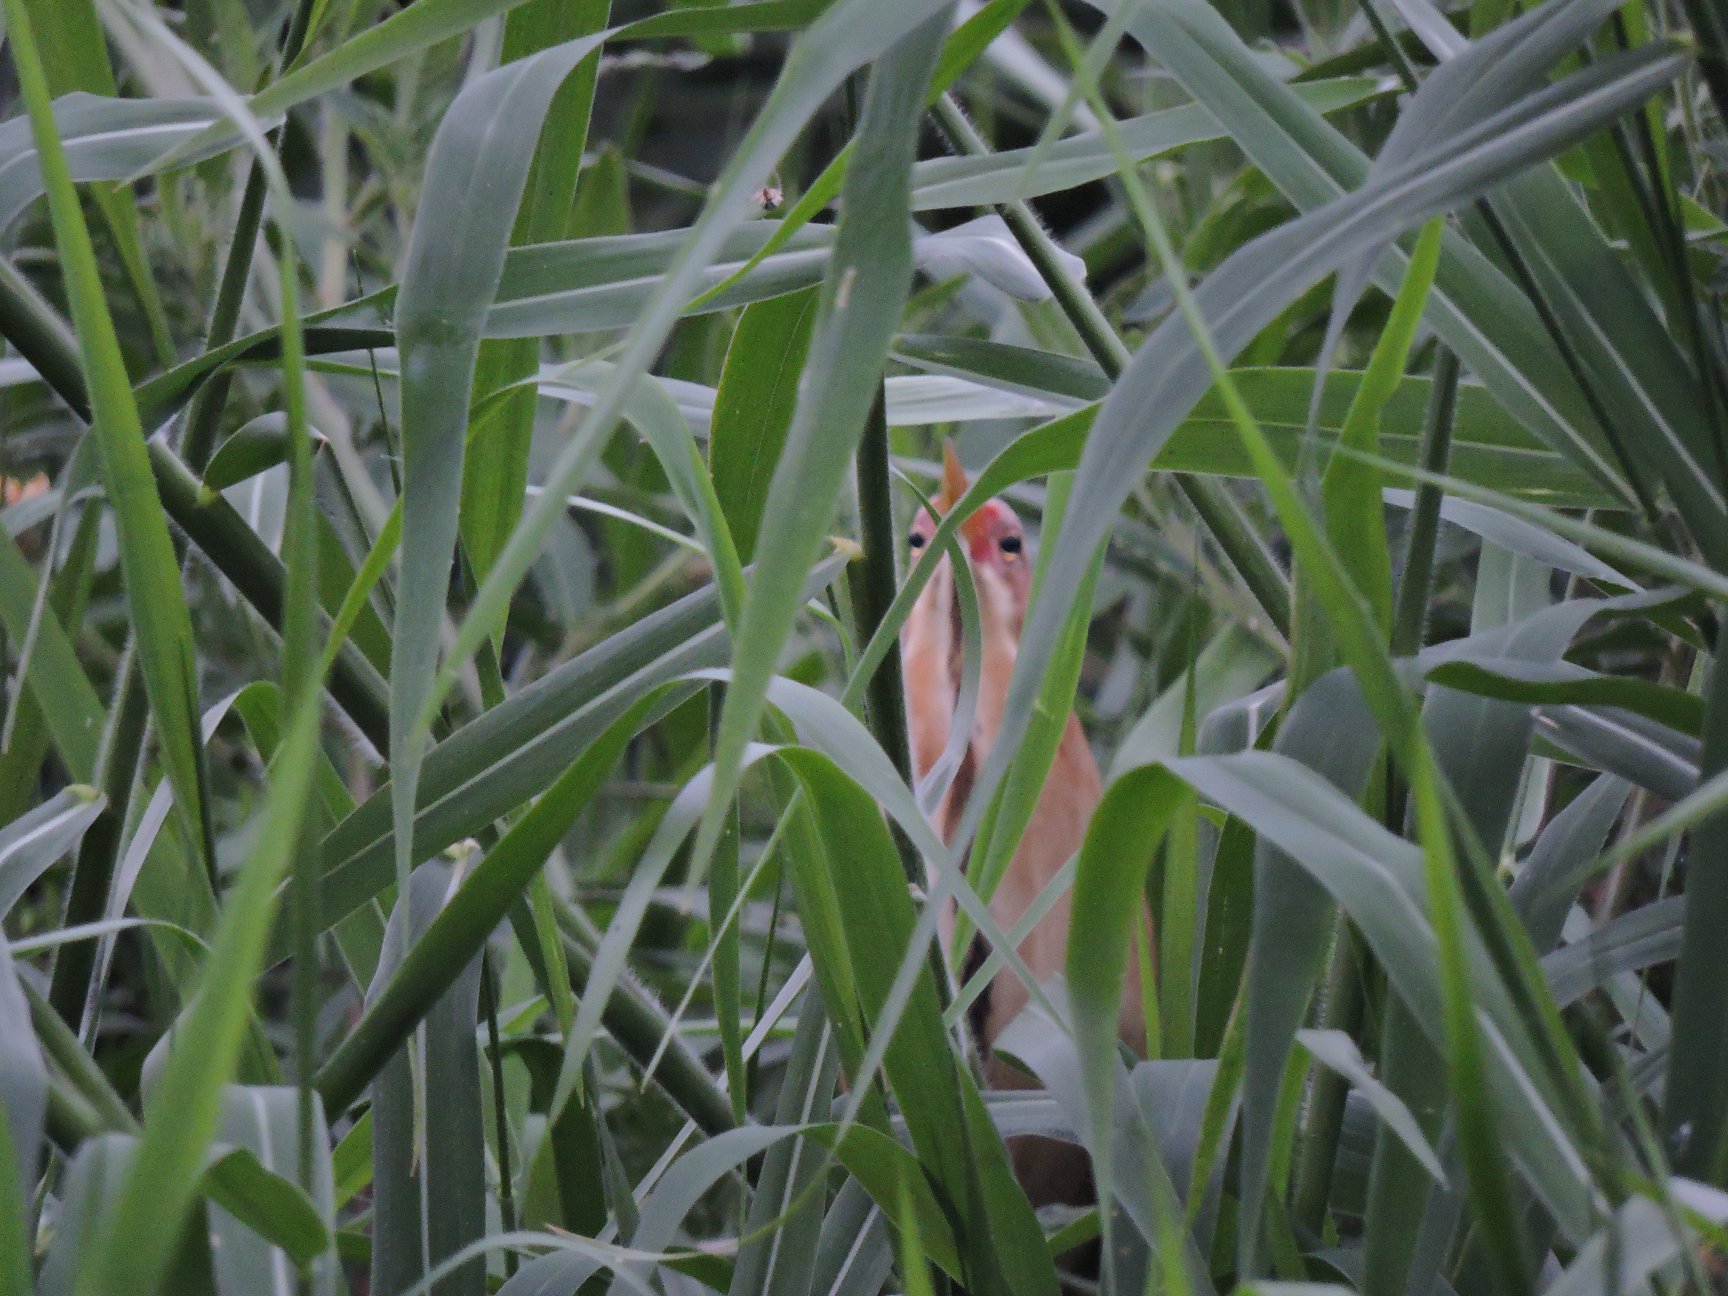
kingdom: Animalia
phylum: Chordata
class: Aves
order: Pelecaniformes
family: Ardeidae
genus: Ixobrychus
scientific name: Ixobrychus cinnamomeus
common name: Cinnamon bittern
